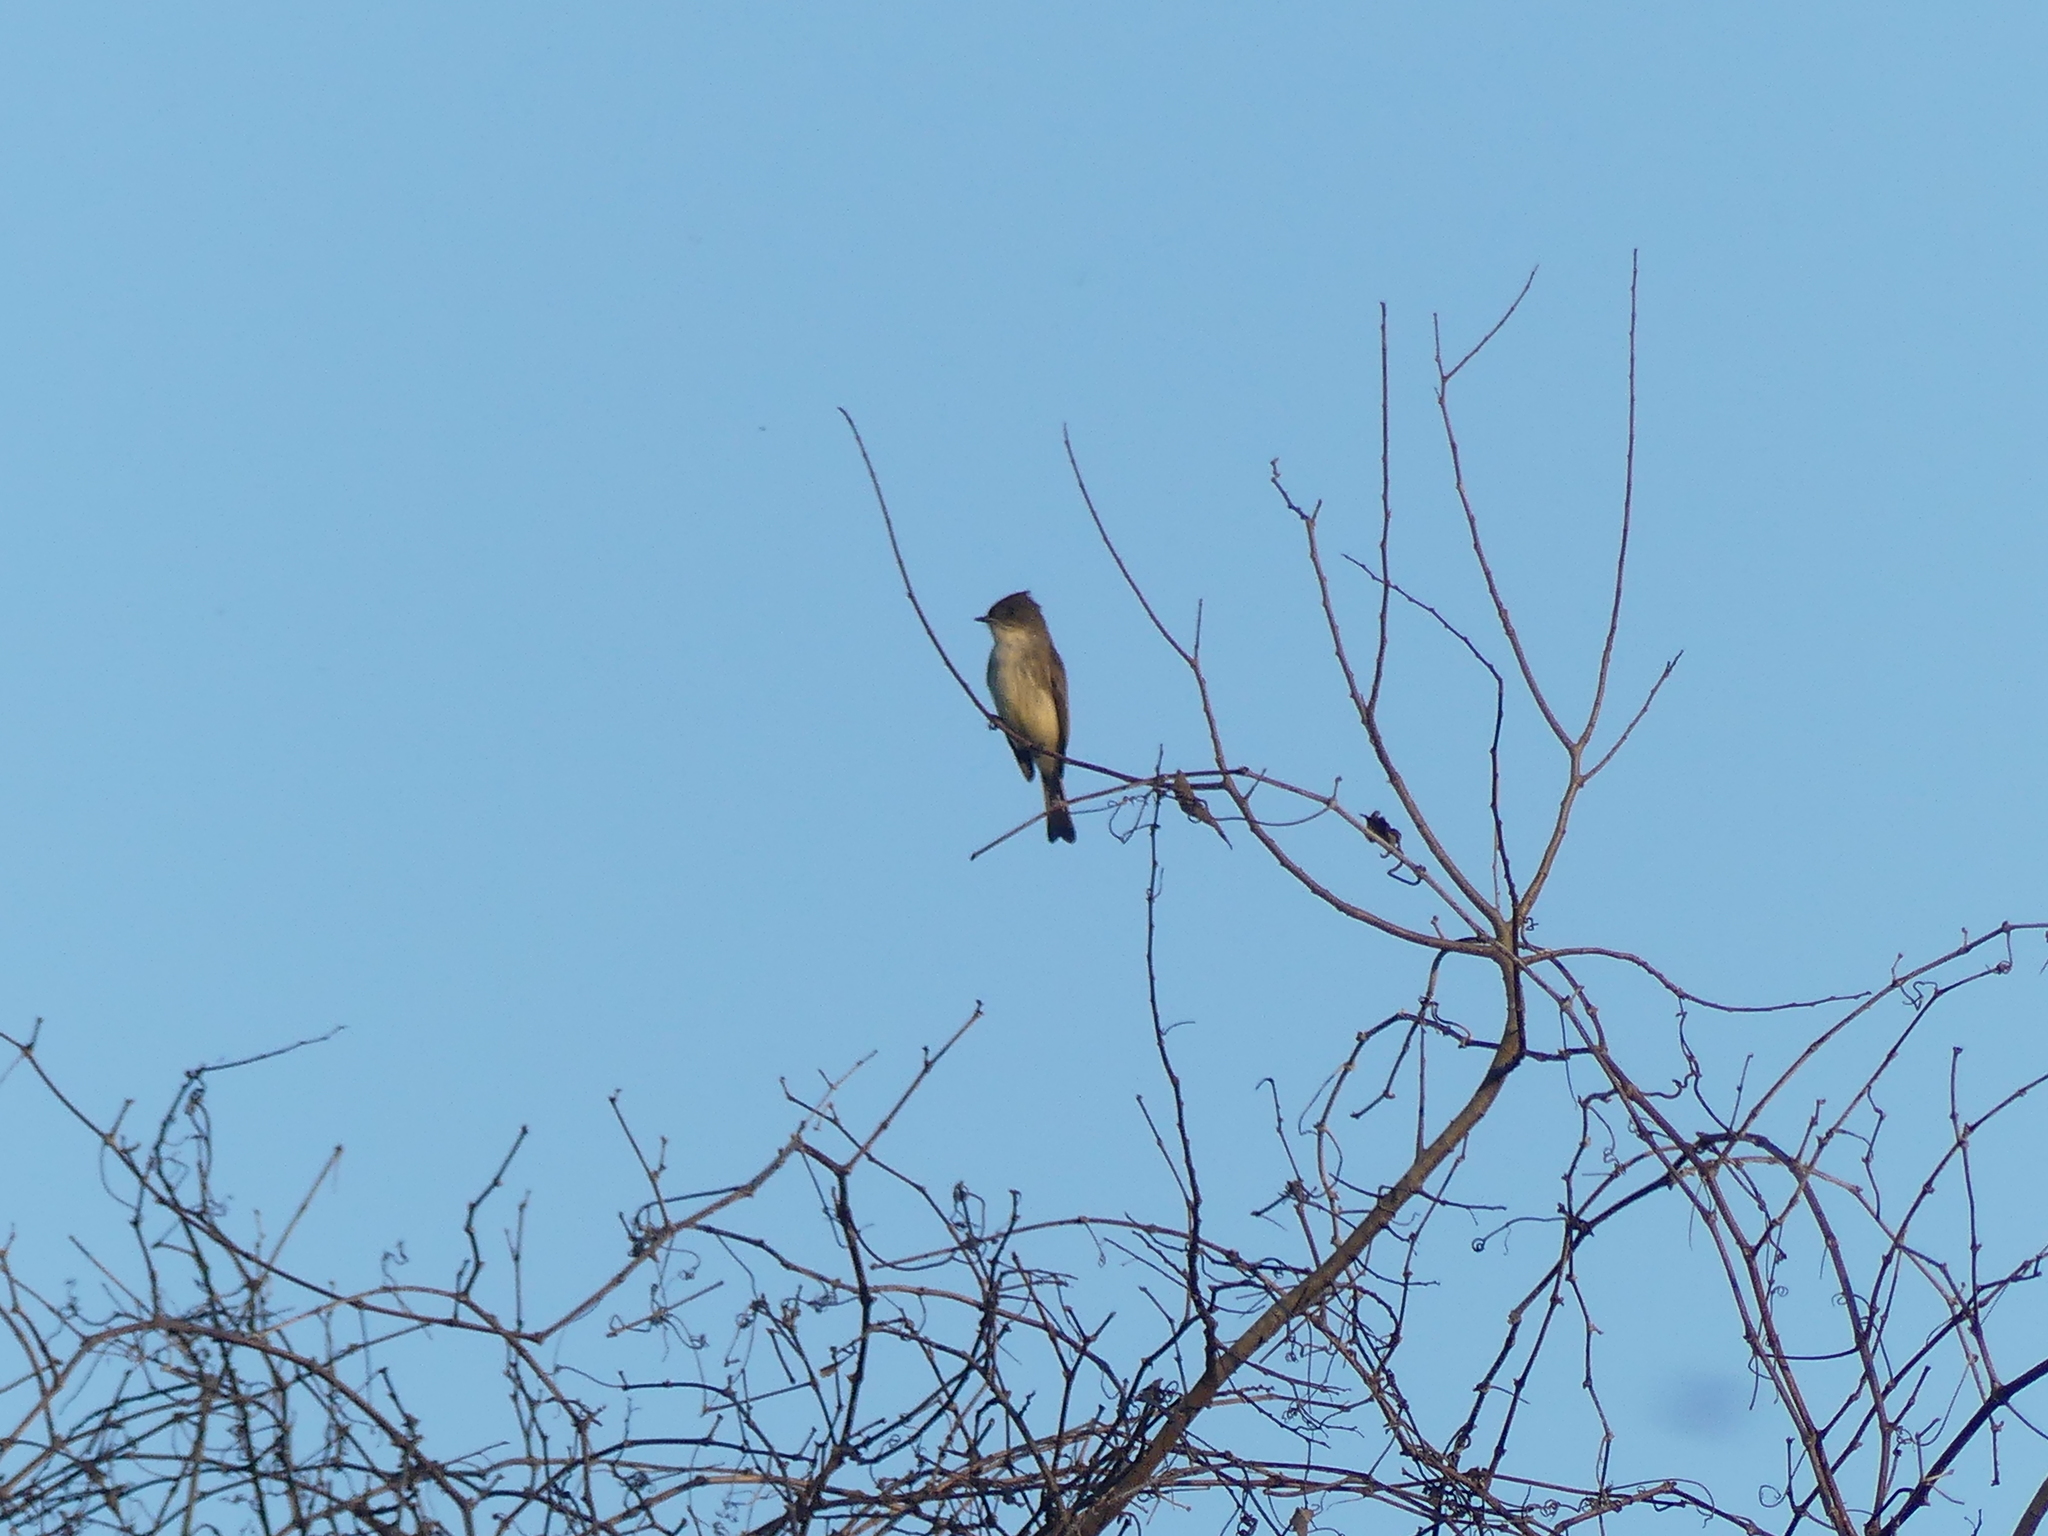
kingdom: Animalia
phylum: Chordata
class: Aves
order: Passeriformes
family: Tyrannidae
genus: Sayornis
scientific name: Sayornis phoebe
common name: Eastern phoebe
